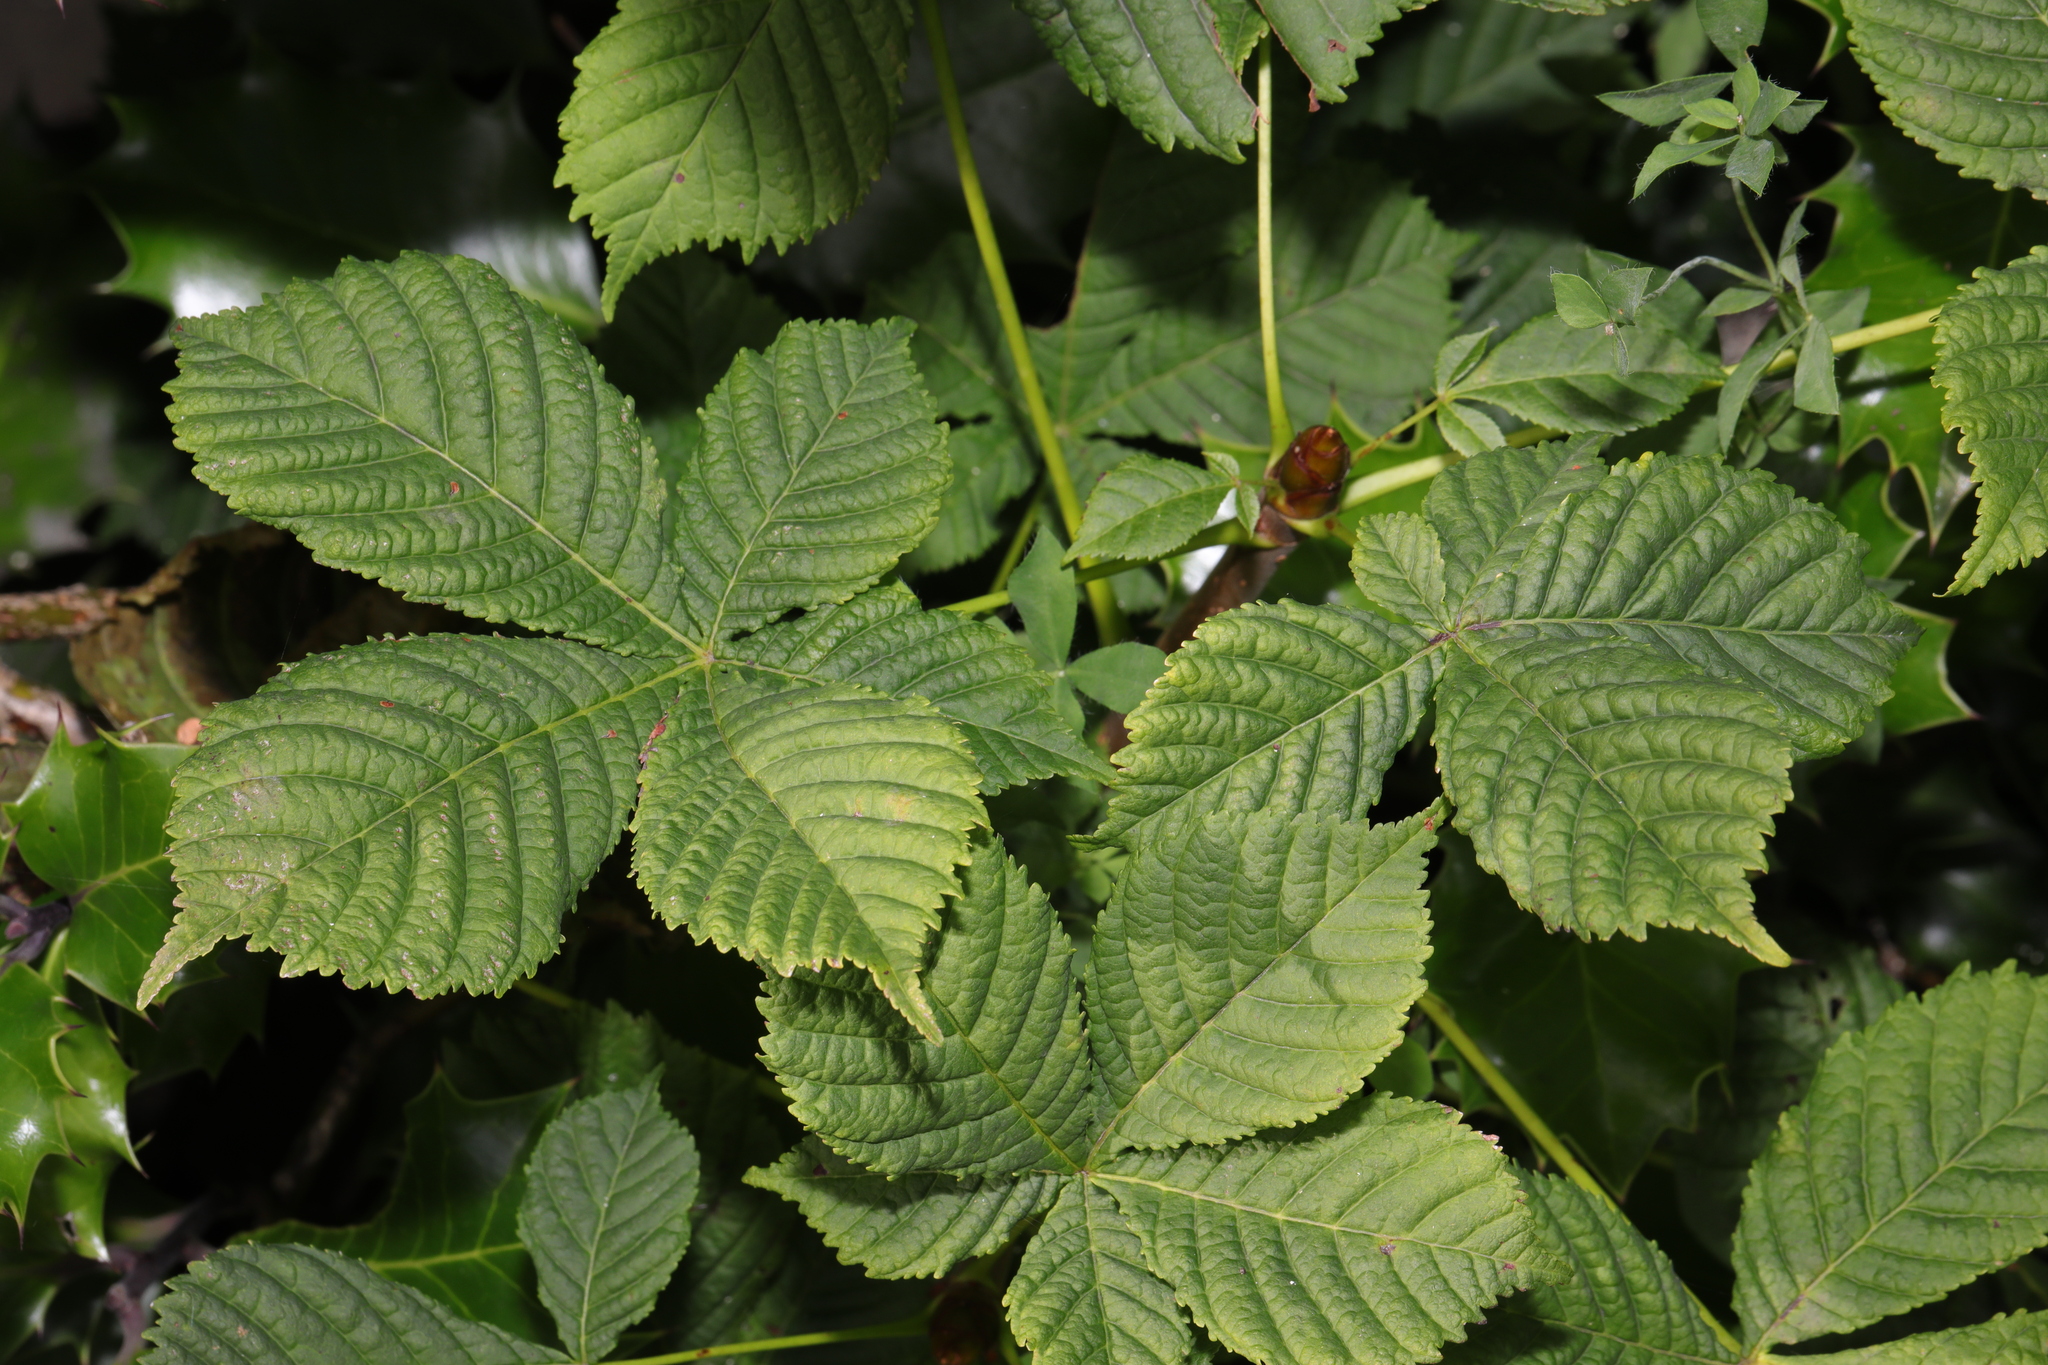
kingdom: Plantae
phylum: Tracheophyta
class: Magnoliopsida
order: Sapindales
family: Sapindaceae
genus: Aesculus
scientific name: Aesculus hippocastanum
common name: Horse-chestnut
